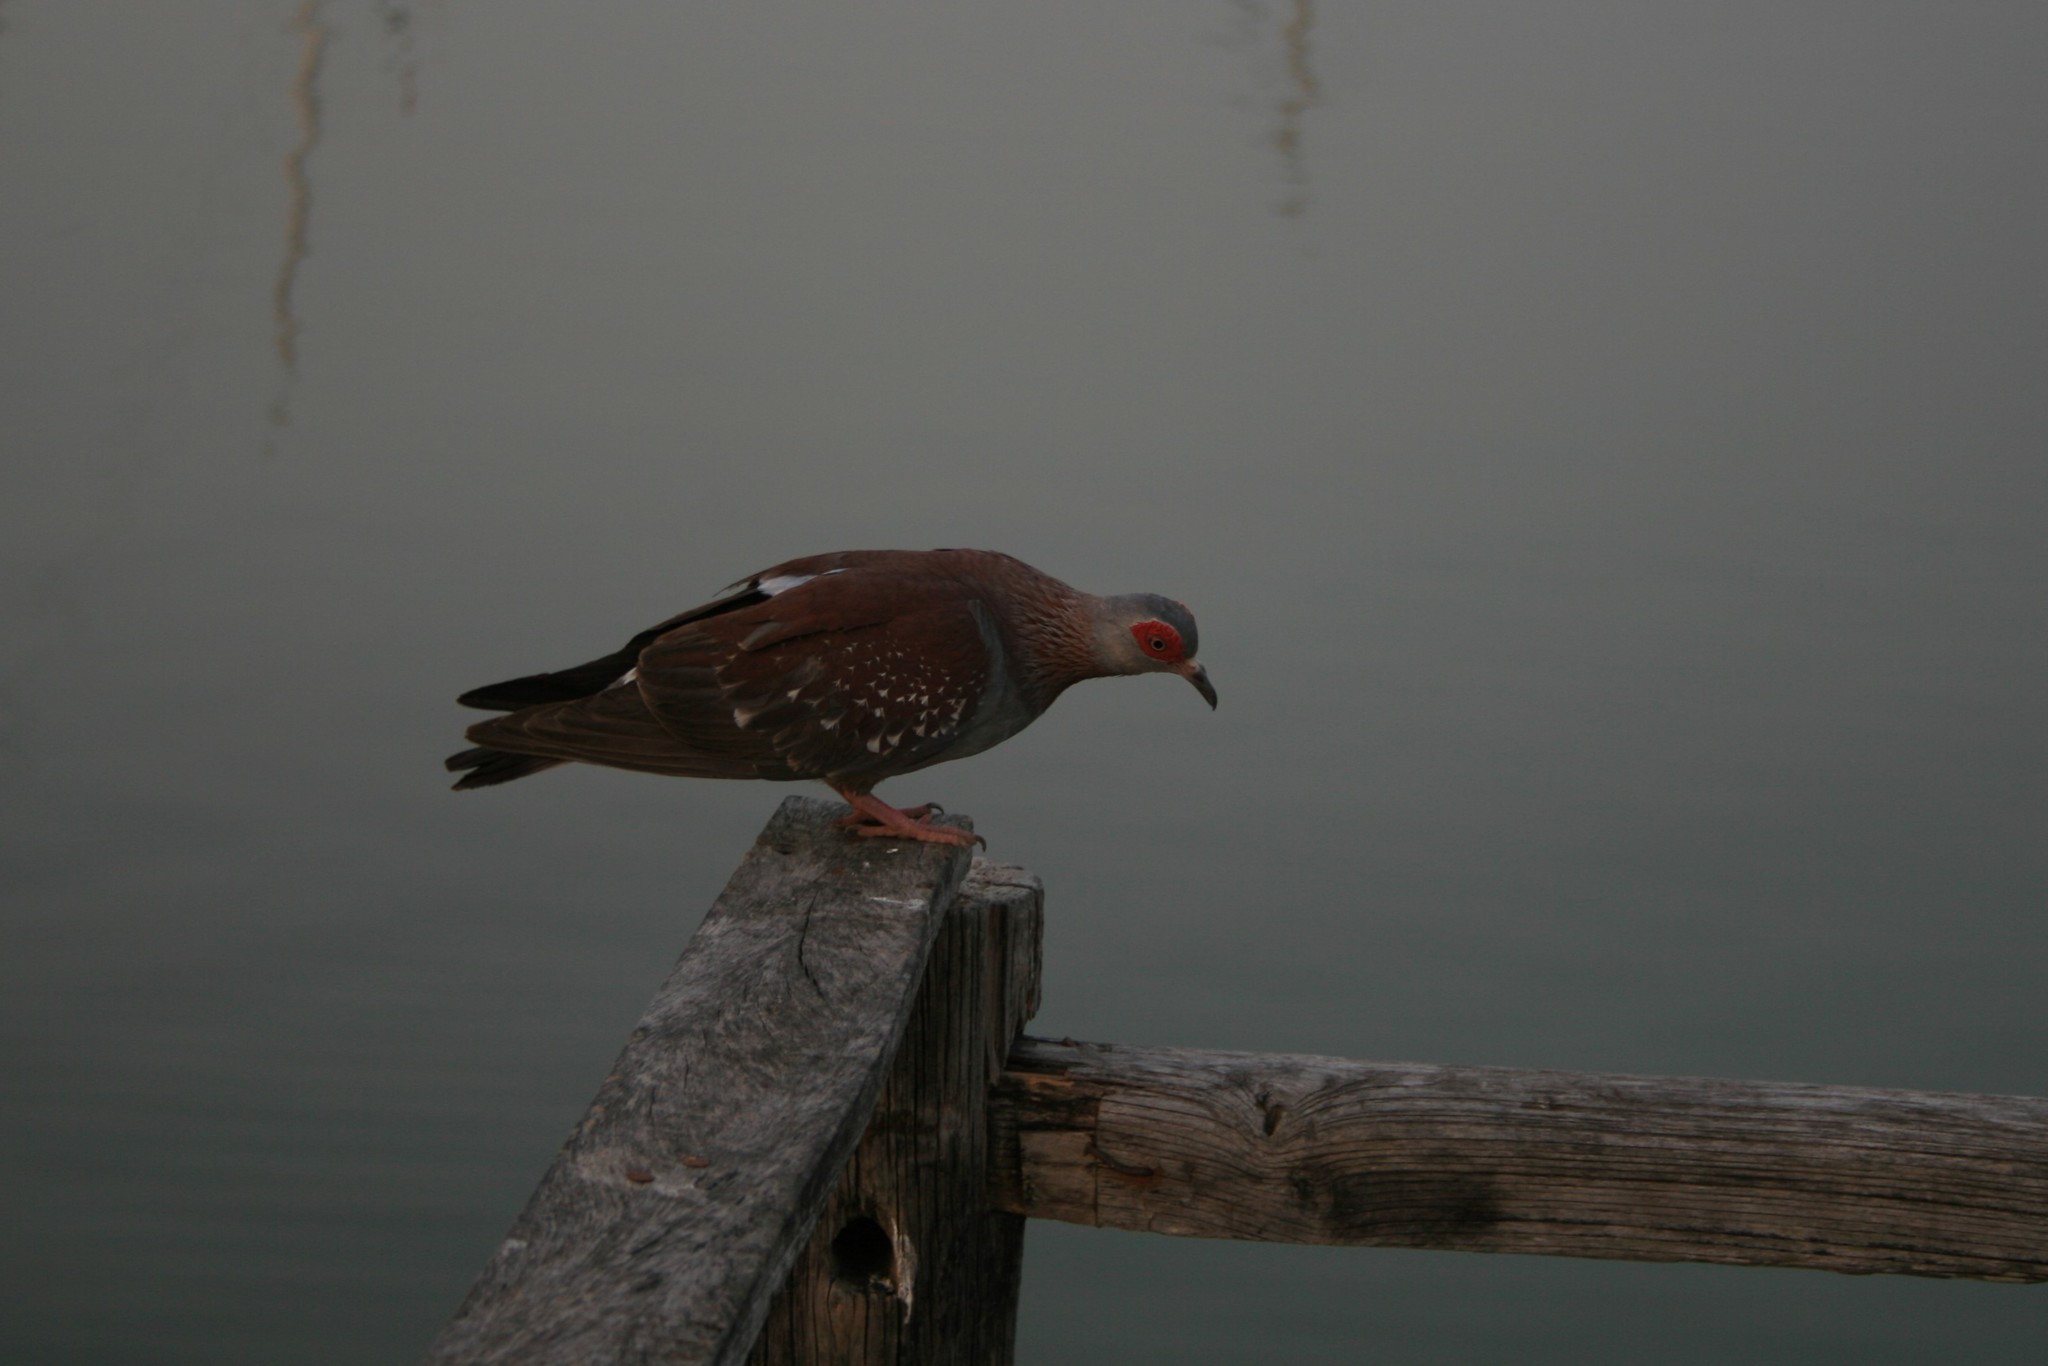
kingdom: Animalia
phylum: Chordata
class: Aves
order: Columbiformes
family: Columbidae
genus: Columba
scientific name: Columba guinea
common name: Speckled pigeon
